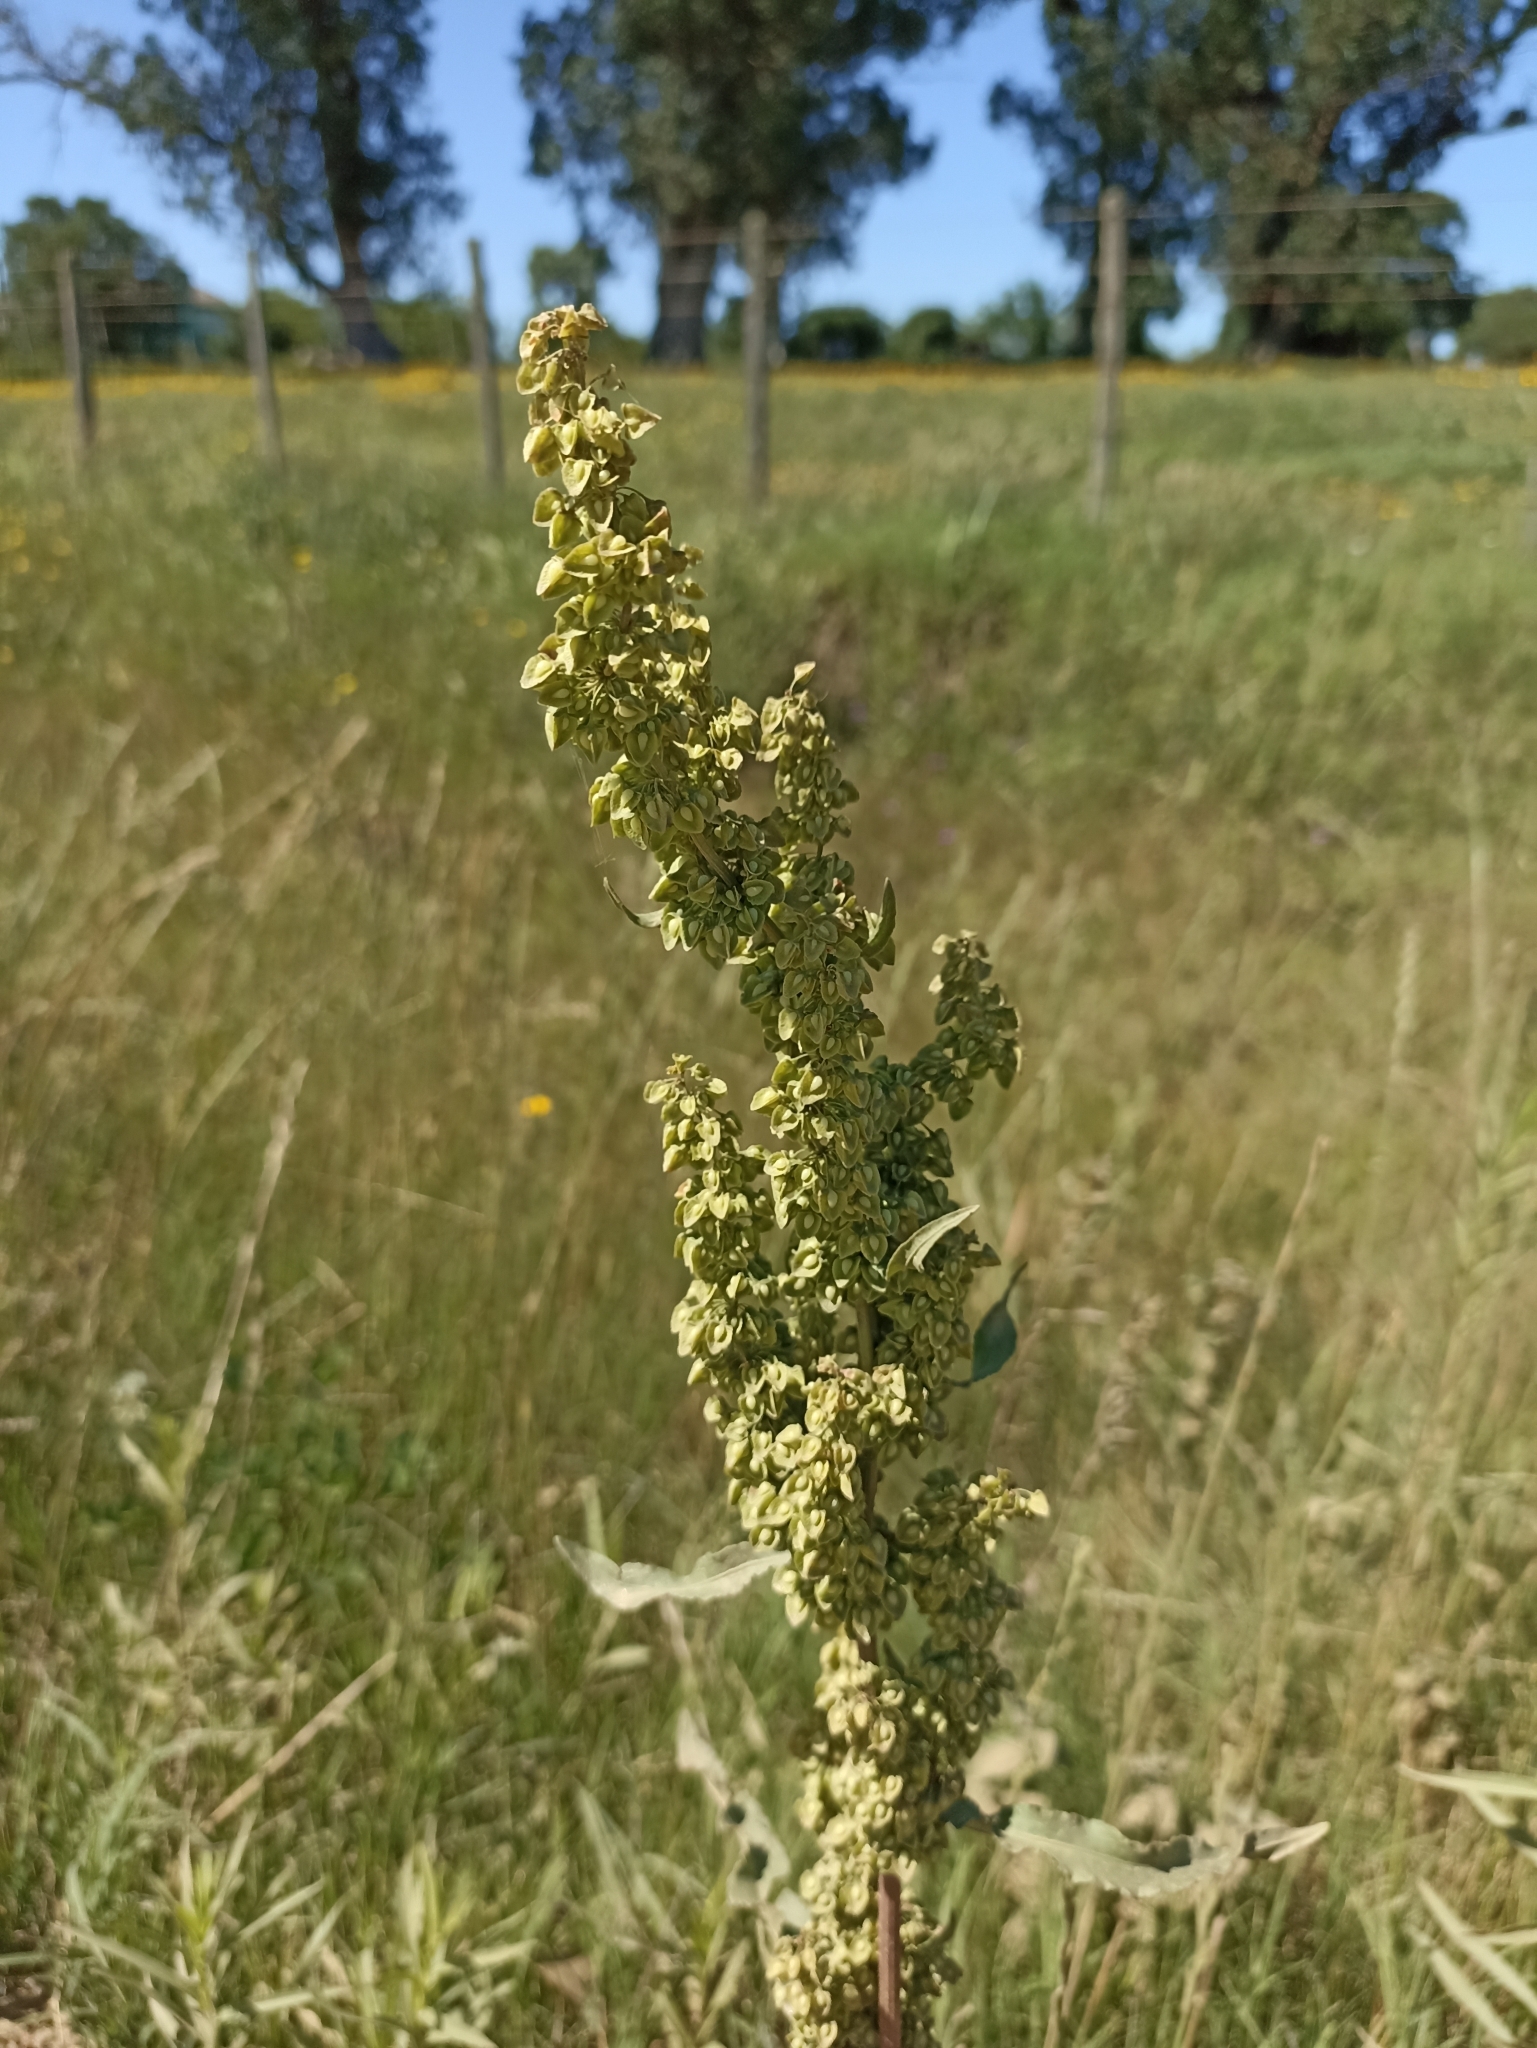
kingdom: Plantae
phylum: Tracheophyta
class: Magnoliopsida
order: Caryophyllales
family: Polygonaceae
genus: Rumex
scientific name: Rumex crispus
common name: Curled dock
